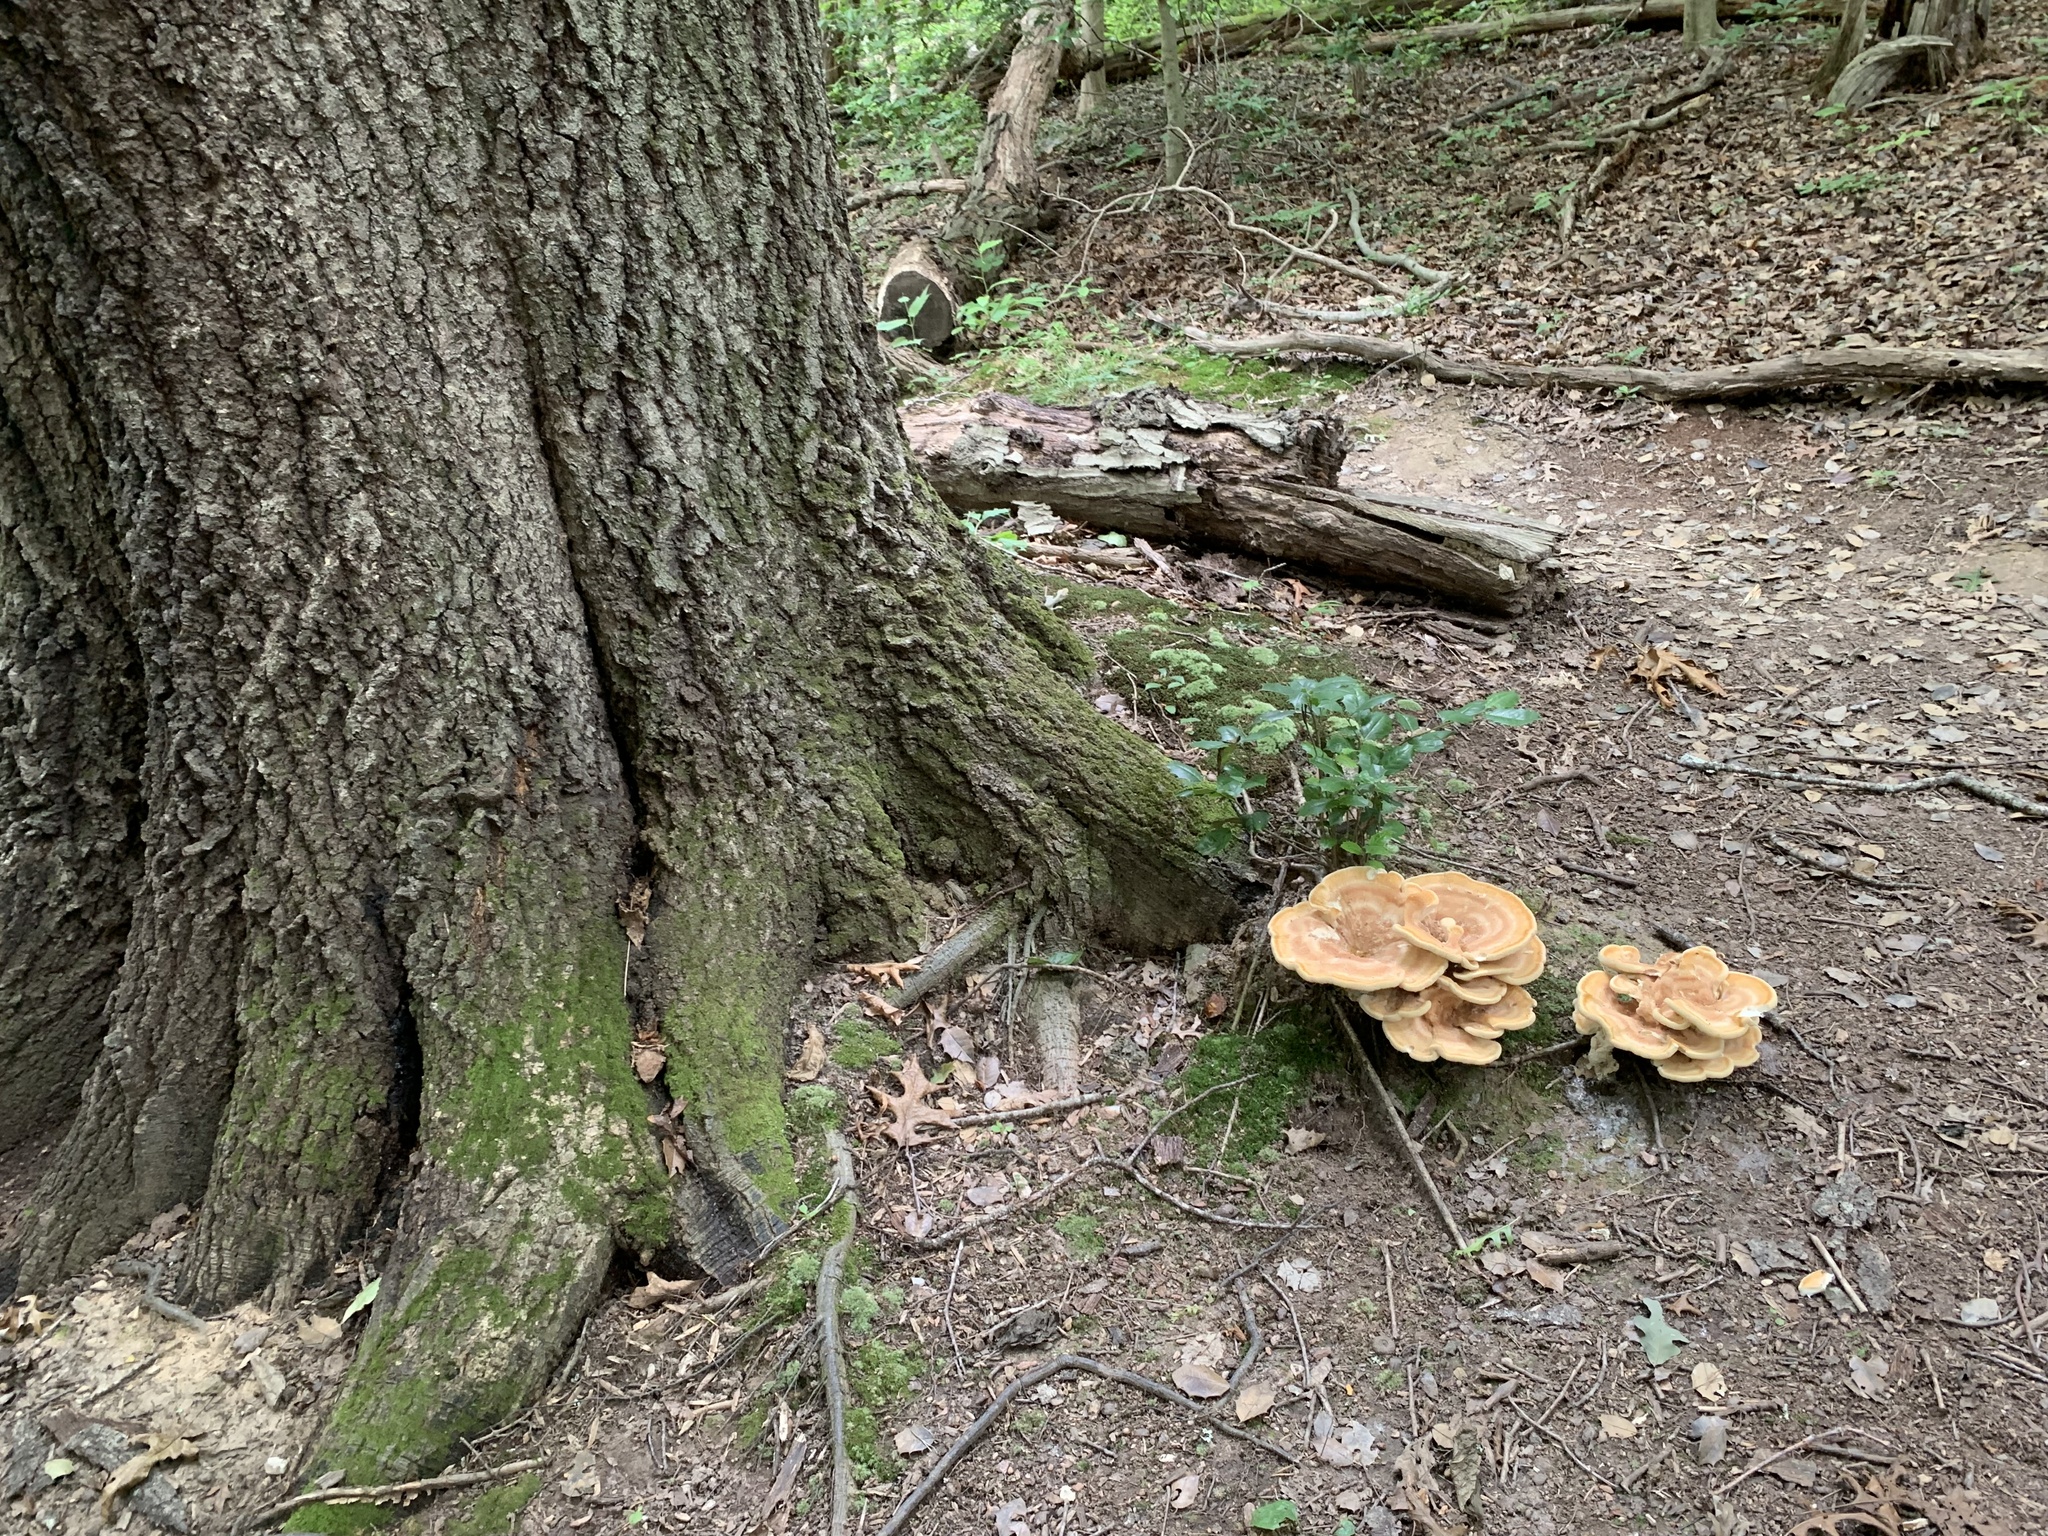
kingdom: Fungi
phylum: Basidiomycota
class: Agaricomycetes
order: Russulales
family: Bondarzewiaceae
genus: Bondarzewia
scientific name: Bondarzewia berkeleyi
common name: Berkeley's polypore
